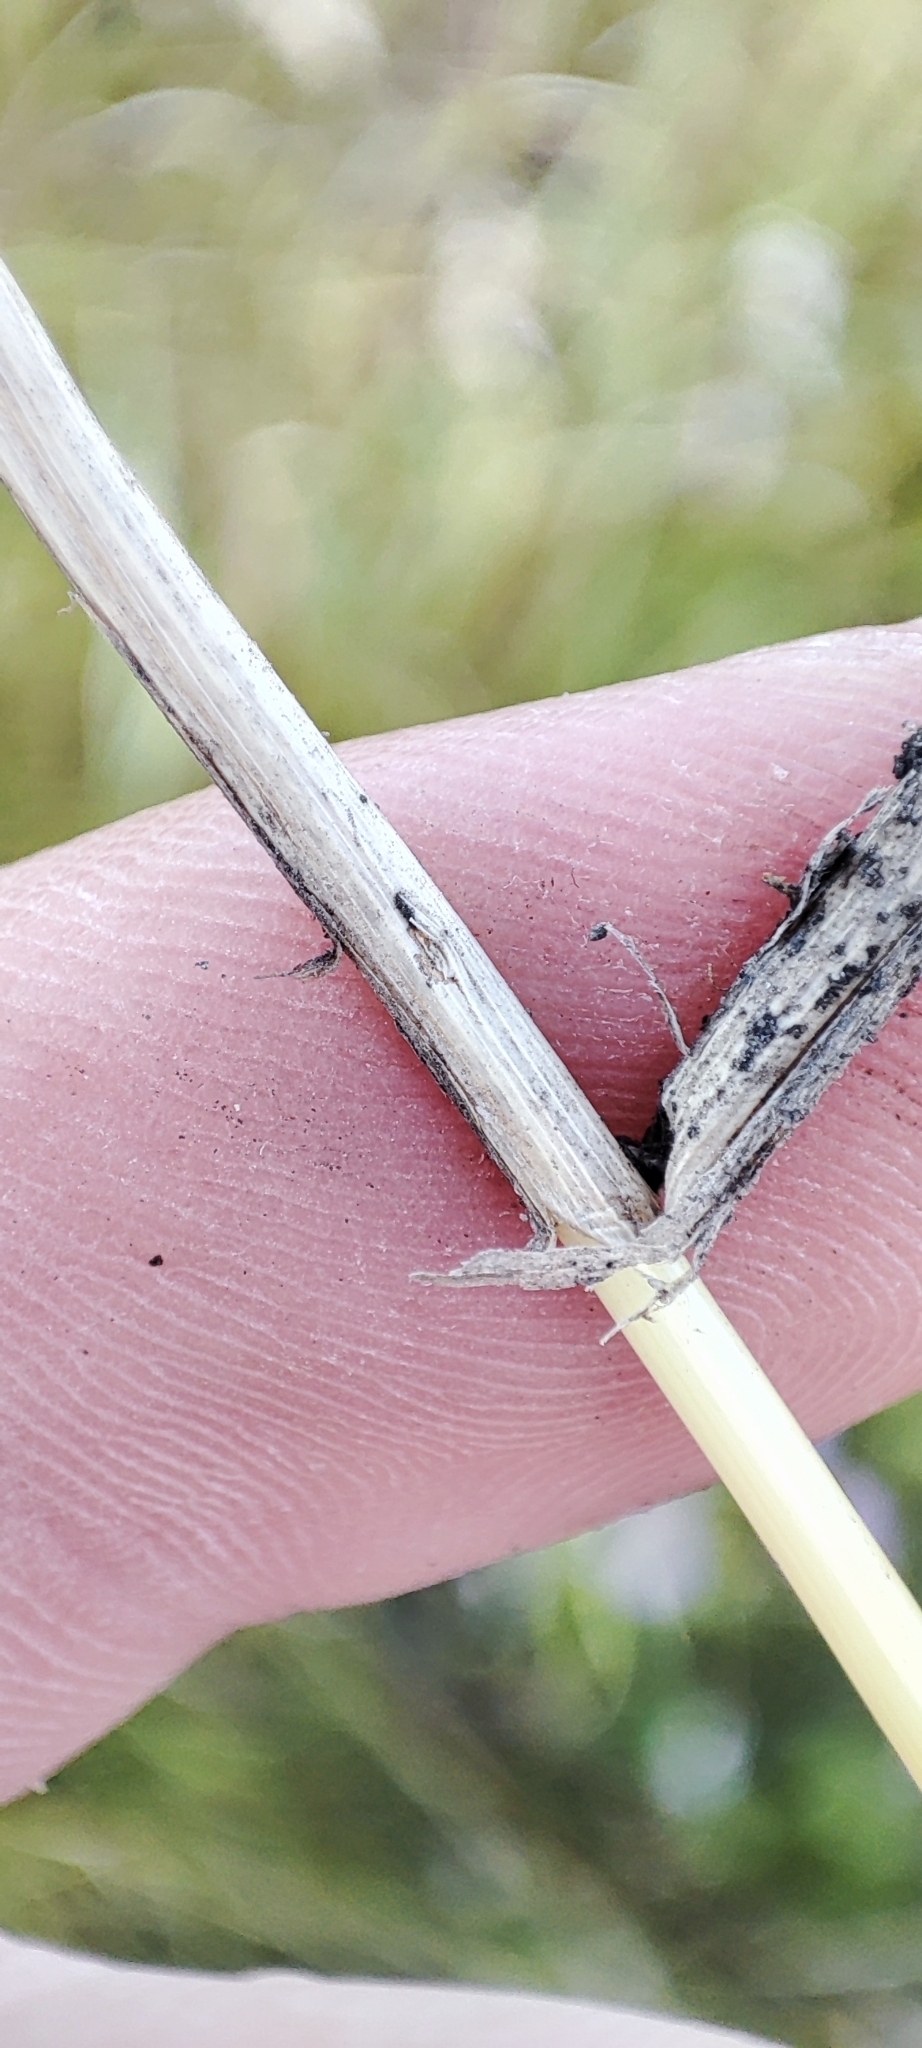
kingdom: Plantae
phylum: Tracheophyta
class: Liliopsida
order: Poales
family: Poaceae
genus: Elymus
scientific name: Elymus repens
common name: Quackgrass
